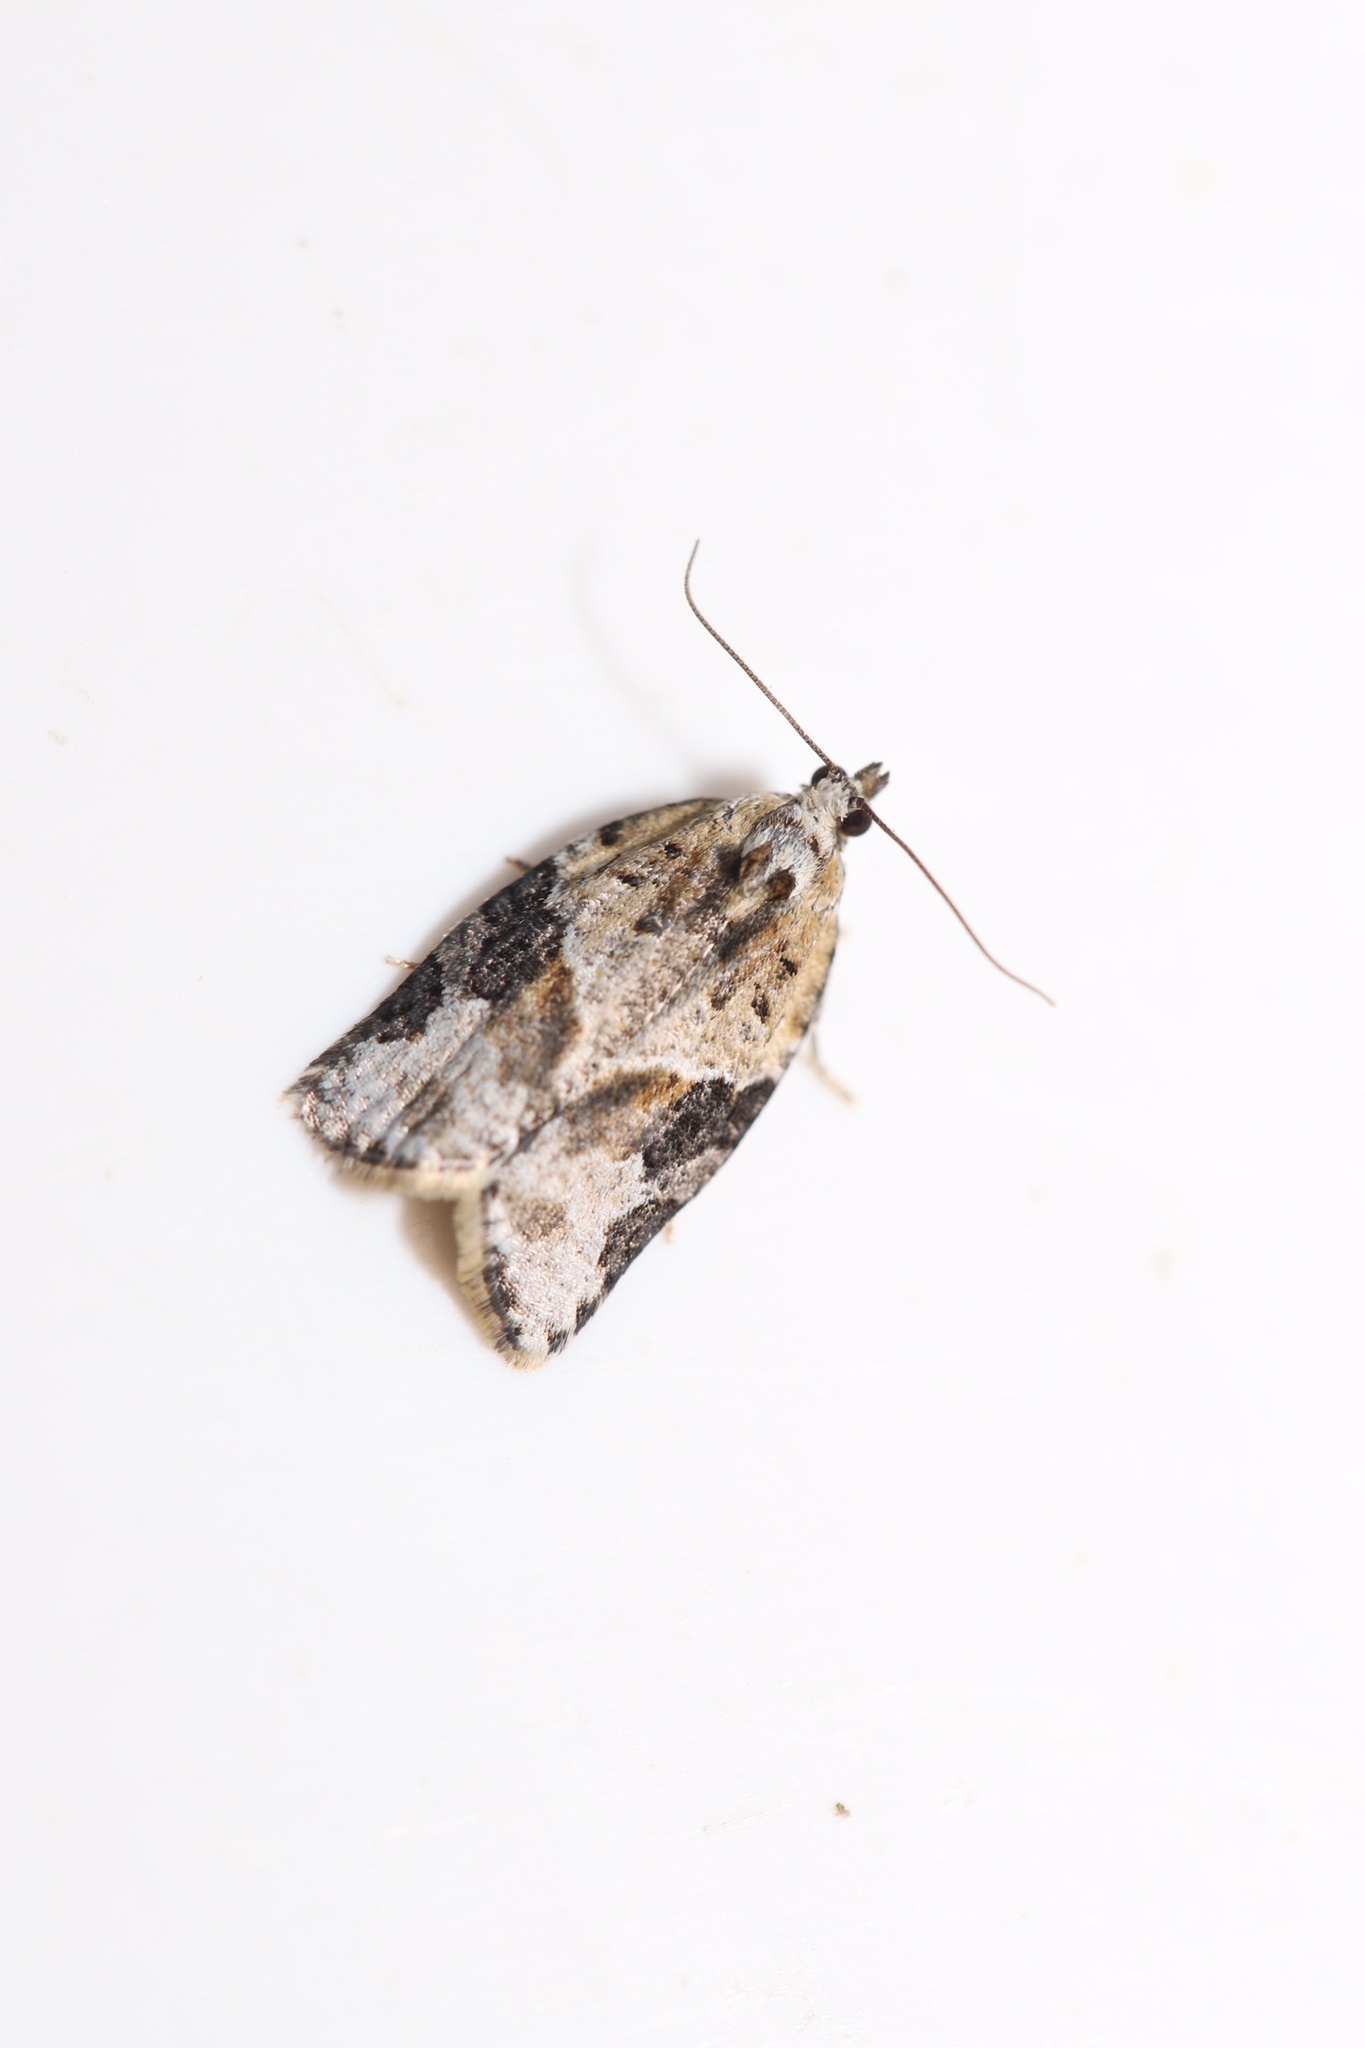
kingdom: Animalia
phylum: Arthropoda
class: Insecta
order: Lepidoptera
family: Tortricidae
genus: Argyrotaenia
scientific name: Argyrotaenia mariana
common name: Gray-banded leafroller moth
